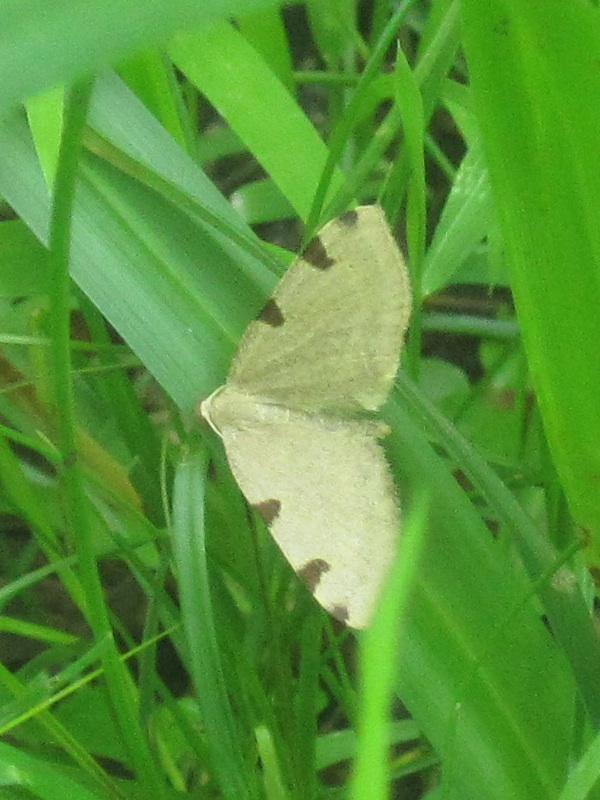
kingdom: Animalia
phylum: Arthropoda
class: Insecta
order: Lepidoptera
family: Geometridae
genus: Heterophleps
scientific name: Heterophleps triguttaria
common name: Three-spotted fillip
